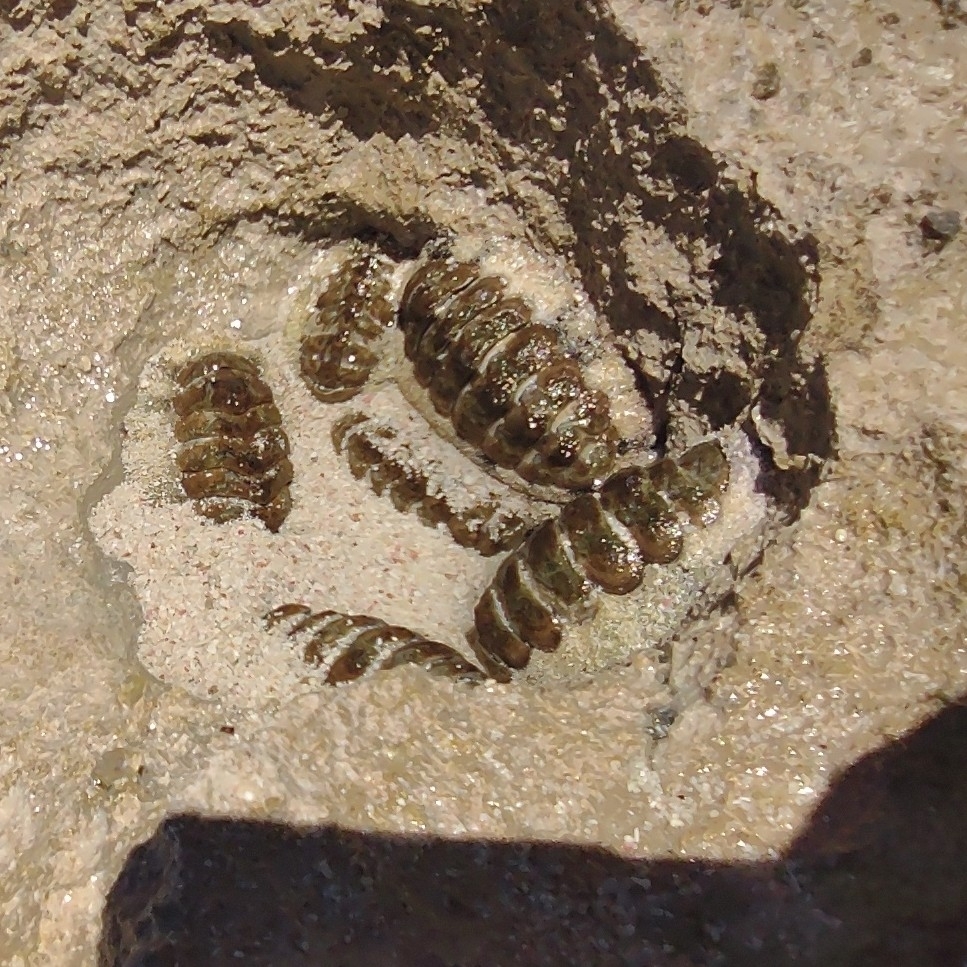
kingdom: Animalia
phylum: Mollusca
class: Polyplacophora
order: Chitonida
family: Chitonidae
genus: Acanthopleura
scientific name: Acanthopleura granulata
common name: West indian fuzzy chiton
